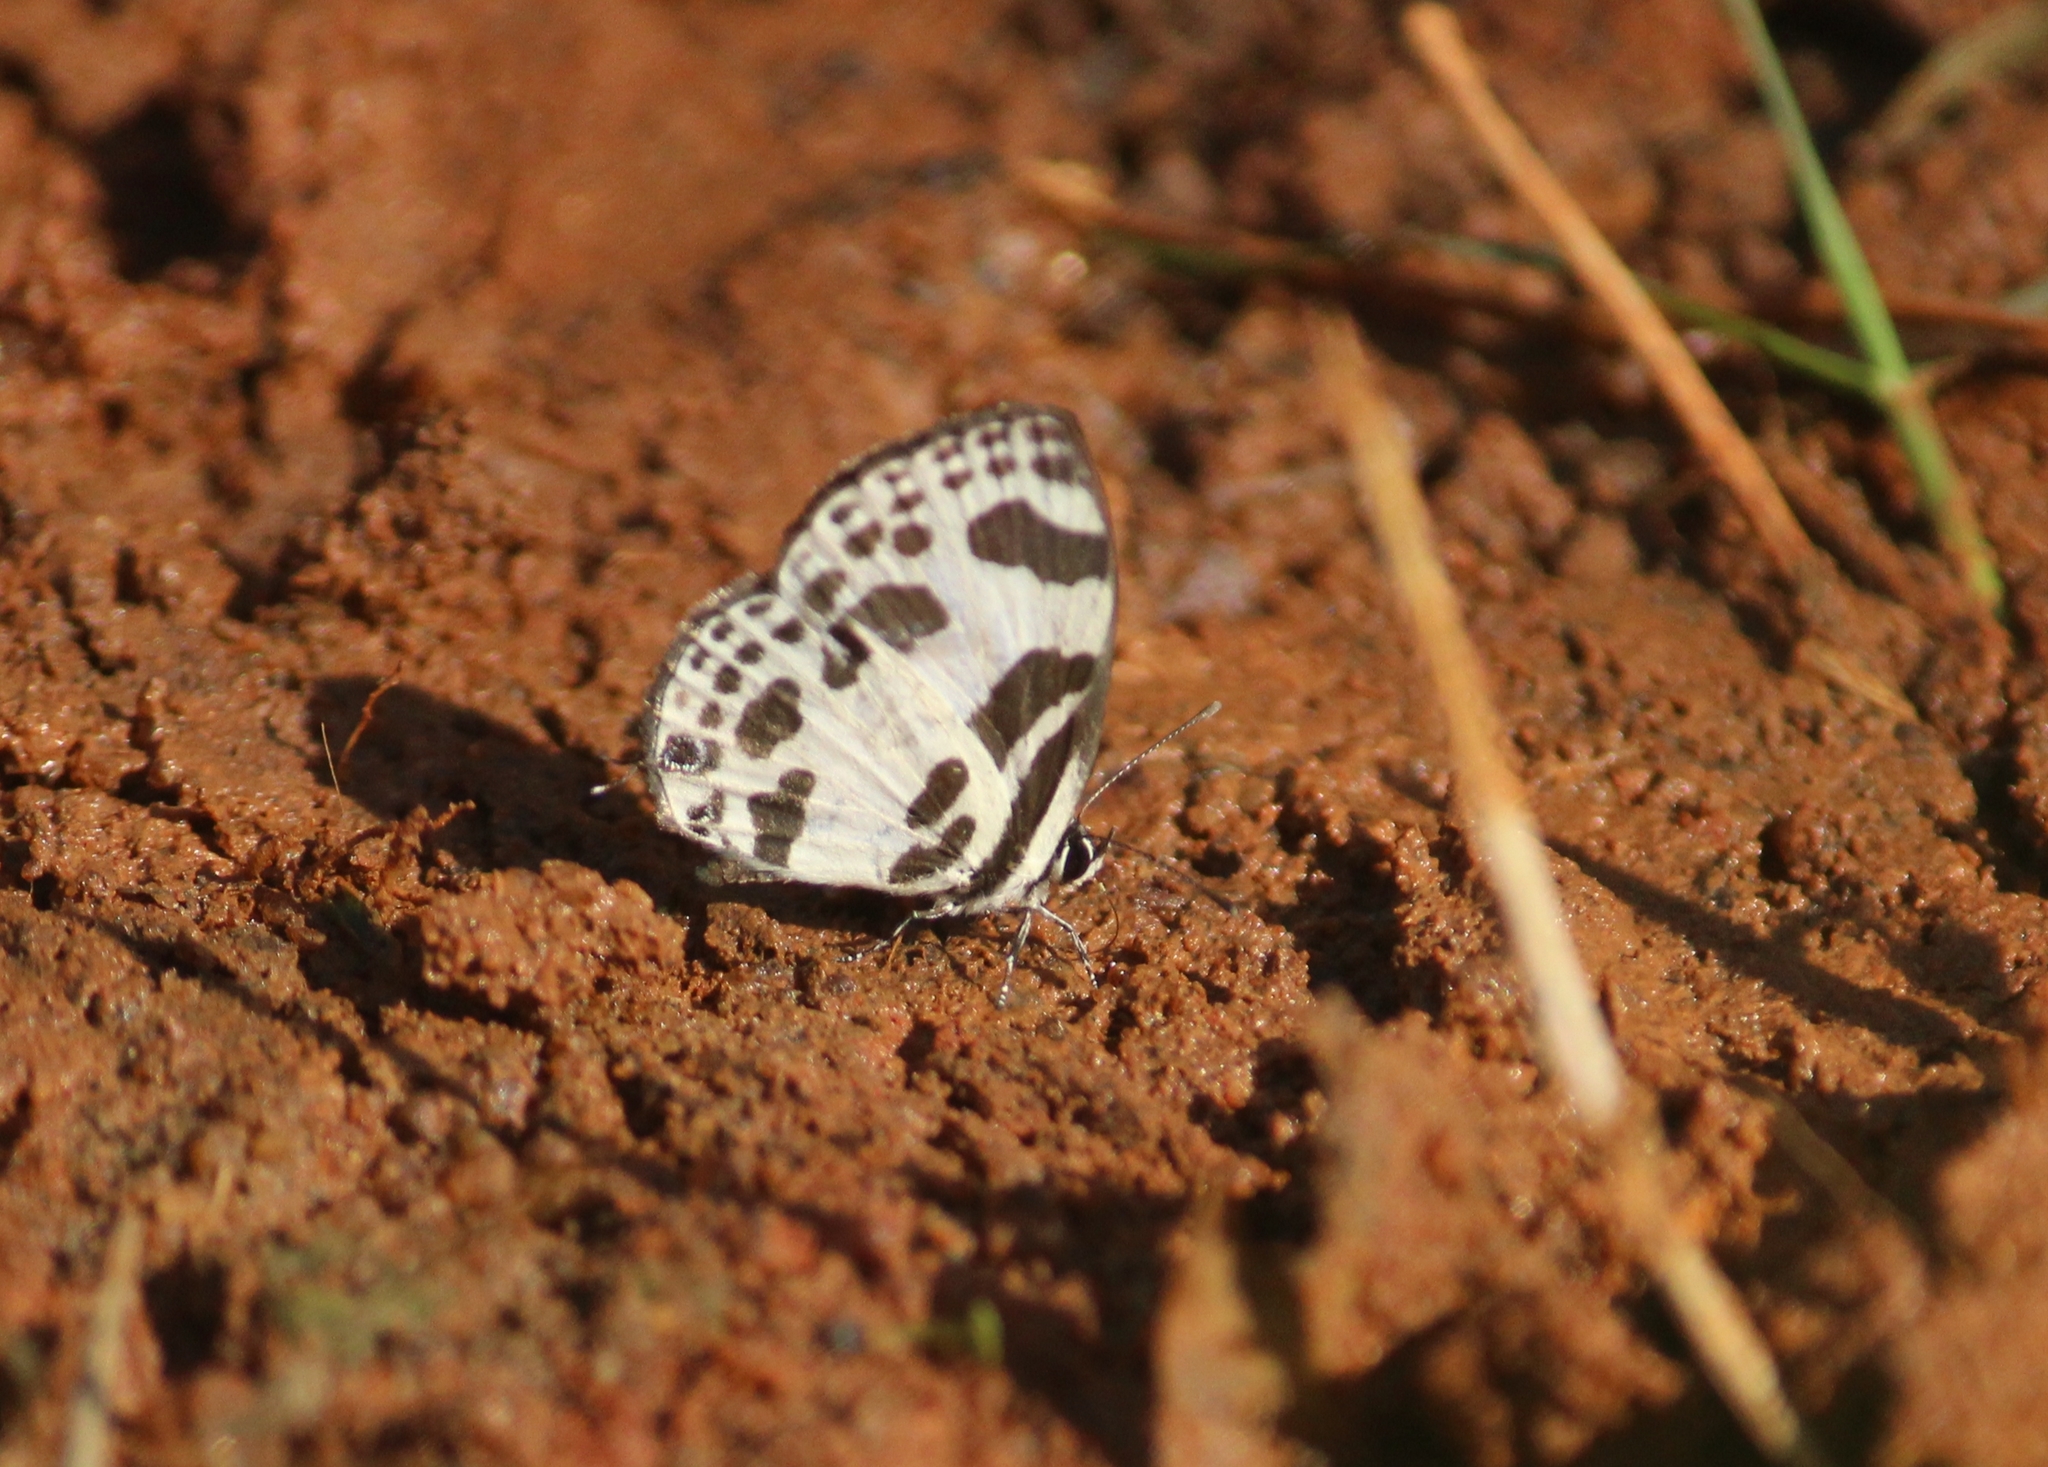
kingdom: Animalia
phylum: Arthropoda
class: Insecta
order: Lepidoptera
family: Lycaenidae
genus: Discolampa
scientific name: Discolampa ethion
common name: Banded blue pierrot
